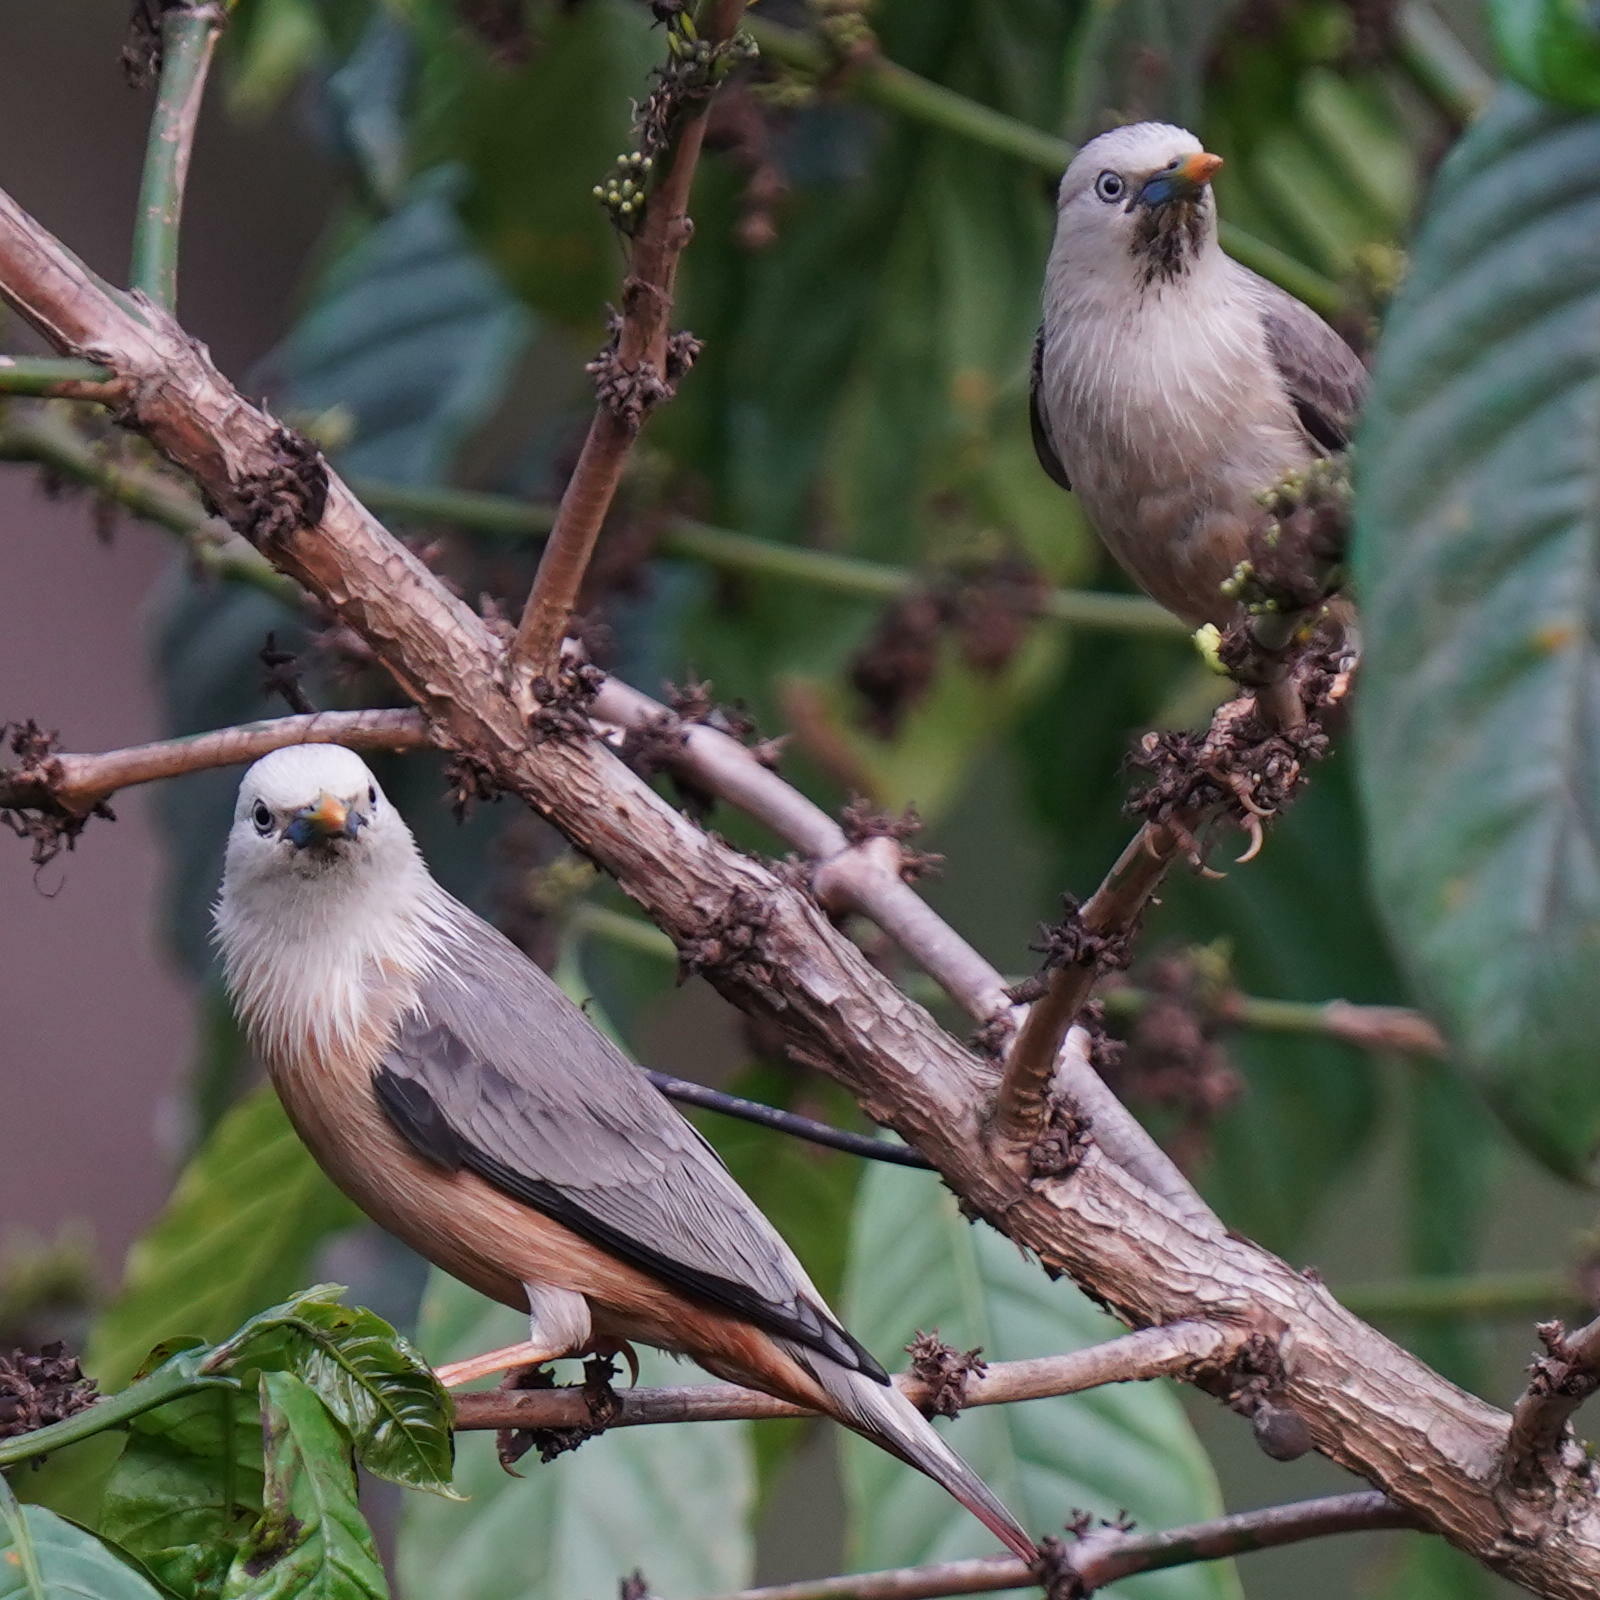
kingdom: Animalia
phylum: Chordata
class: Aves
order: Passeriformes
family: Sturnidae
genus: Sturnia
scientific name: Sturnia blythii
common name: Malabar starling
